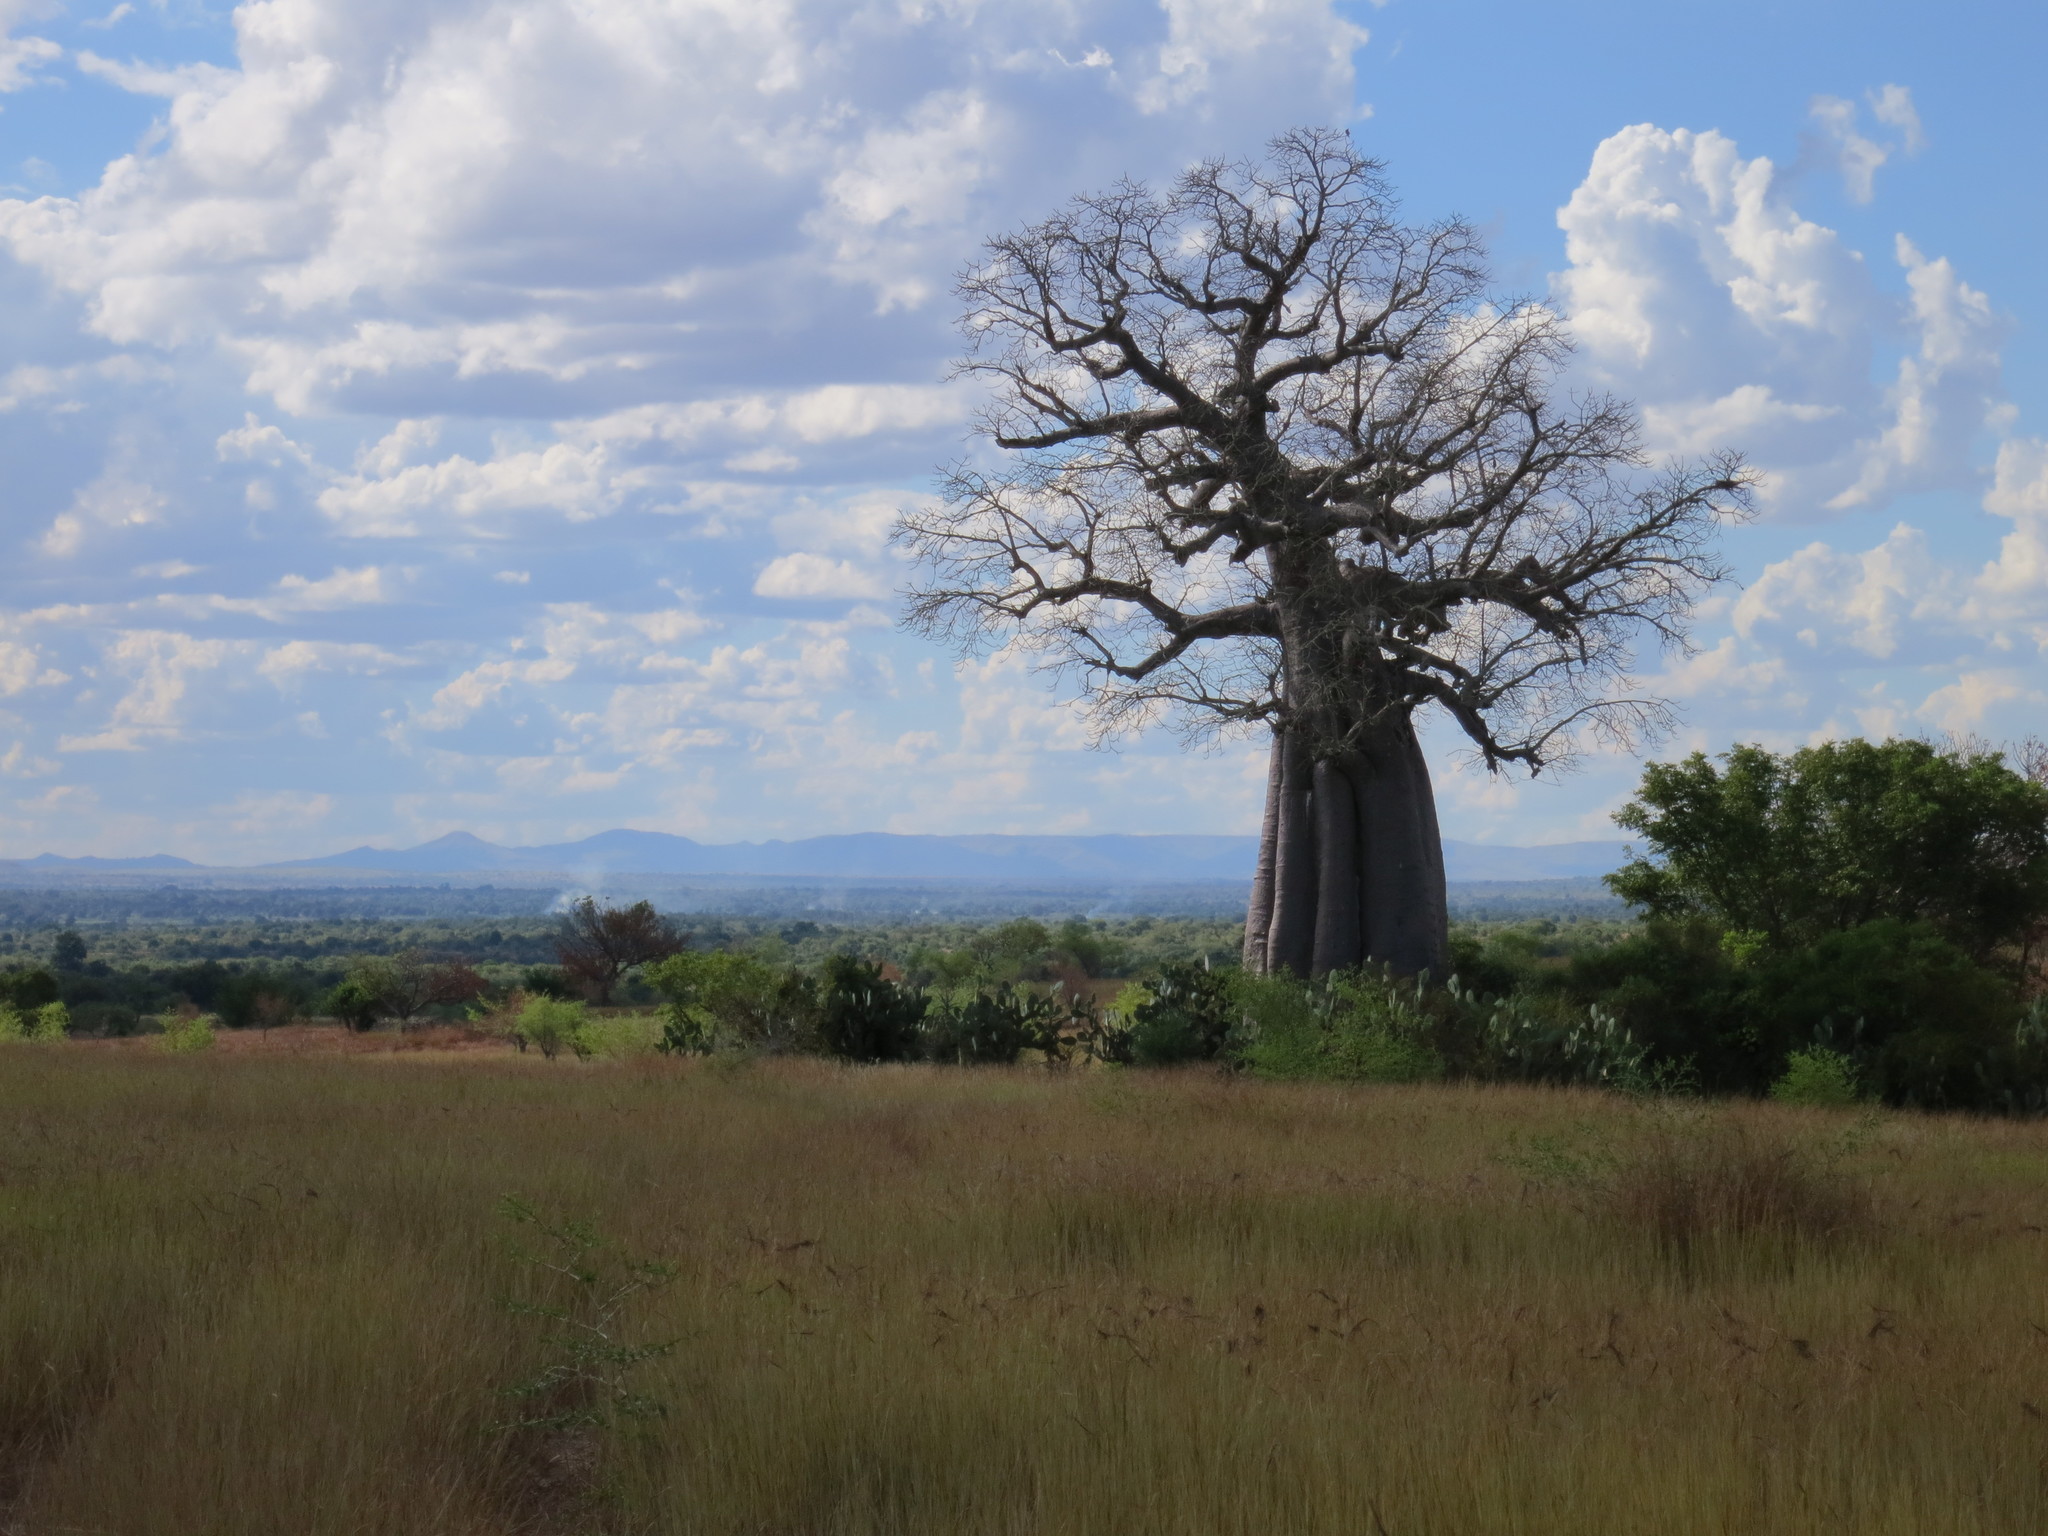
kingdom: Plantae
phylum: Tracheophyta
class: Magnoliopsida
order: Malvales
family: Malvaceae
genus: Adansonia
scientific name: Adansonia za
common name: Za baobab
